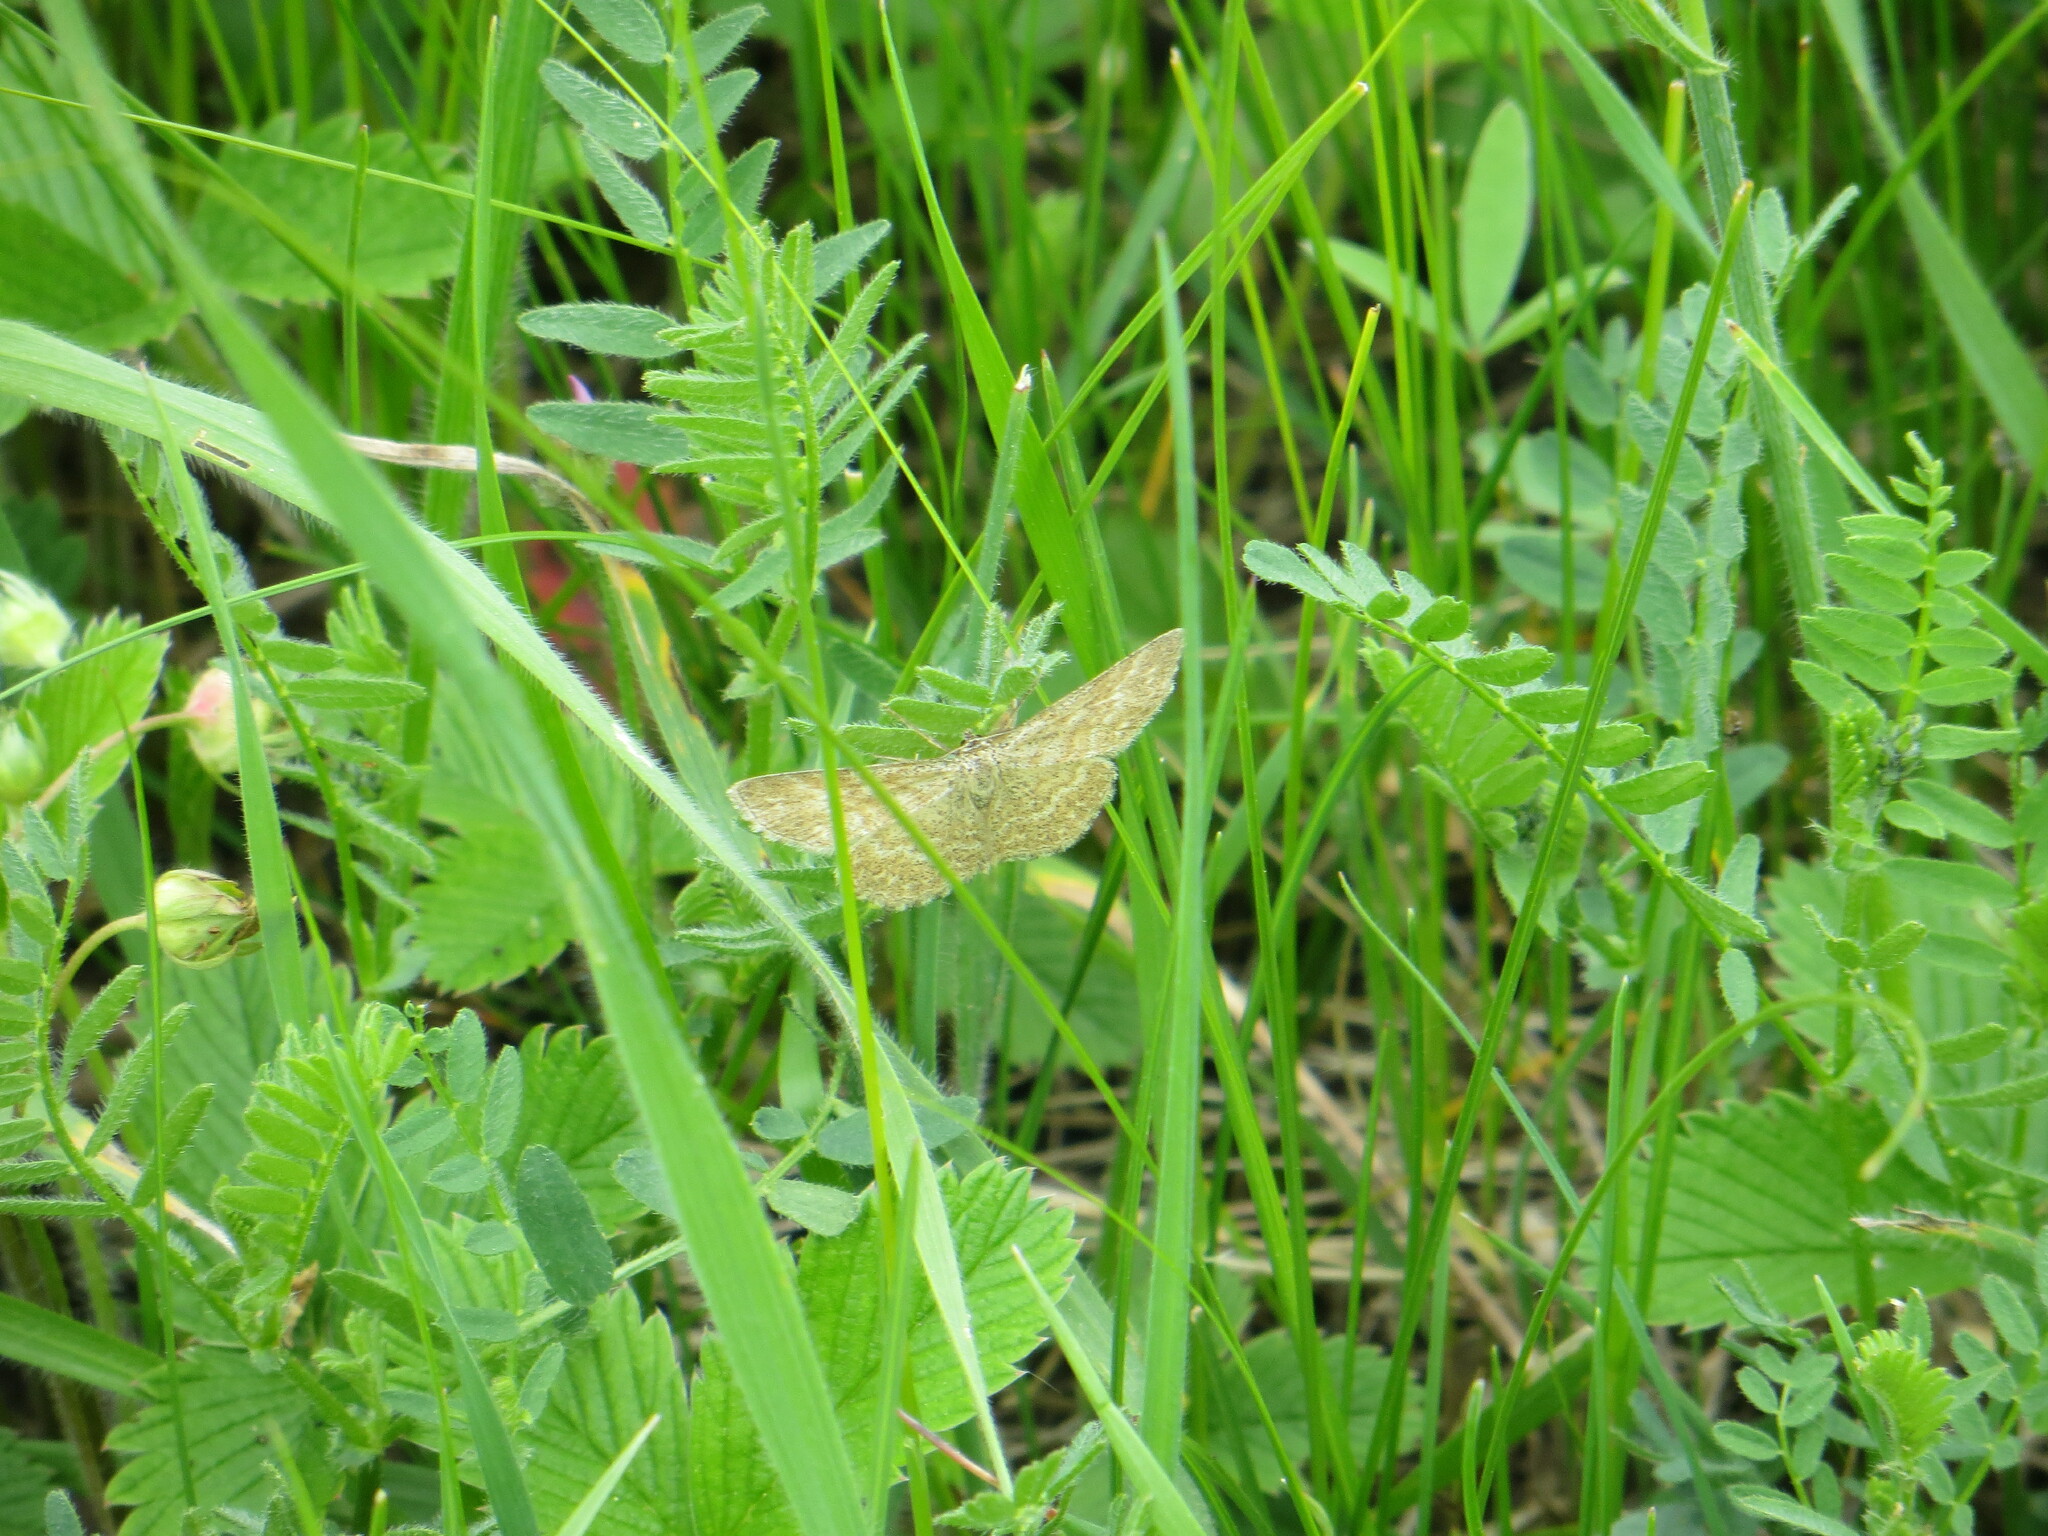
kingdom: Animalia
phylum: Arthropoda
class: Insecta
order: Lepidoptera
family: Geometridae
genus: Scopula
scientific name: Scopula immorata
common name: Lewes wave
